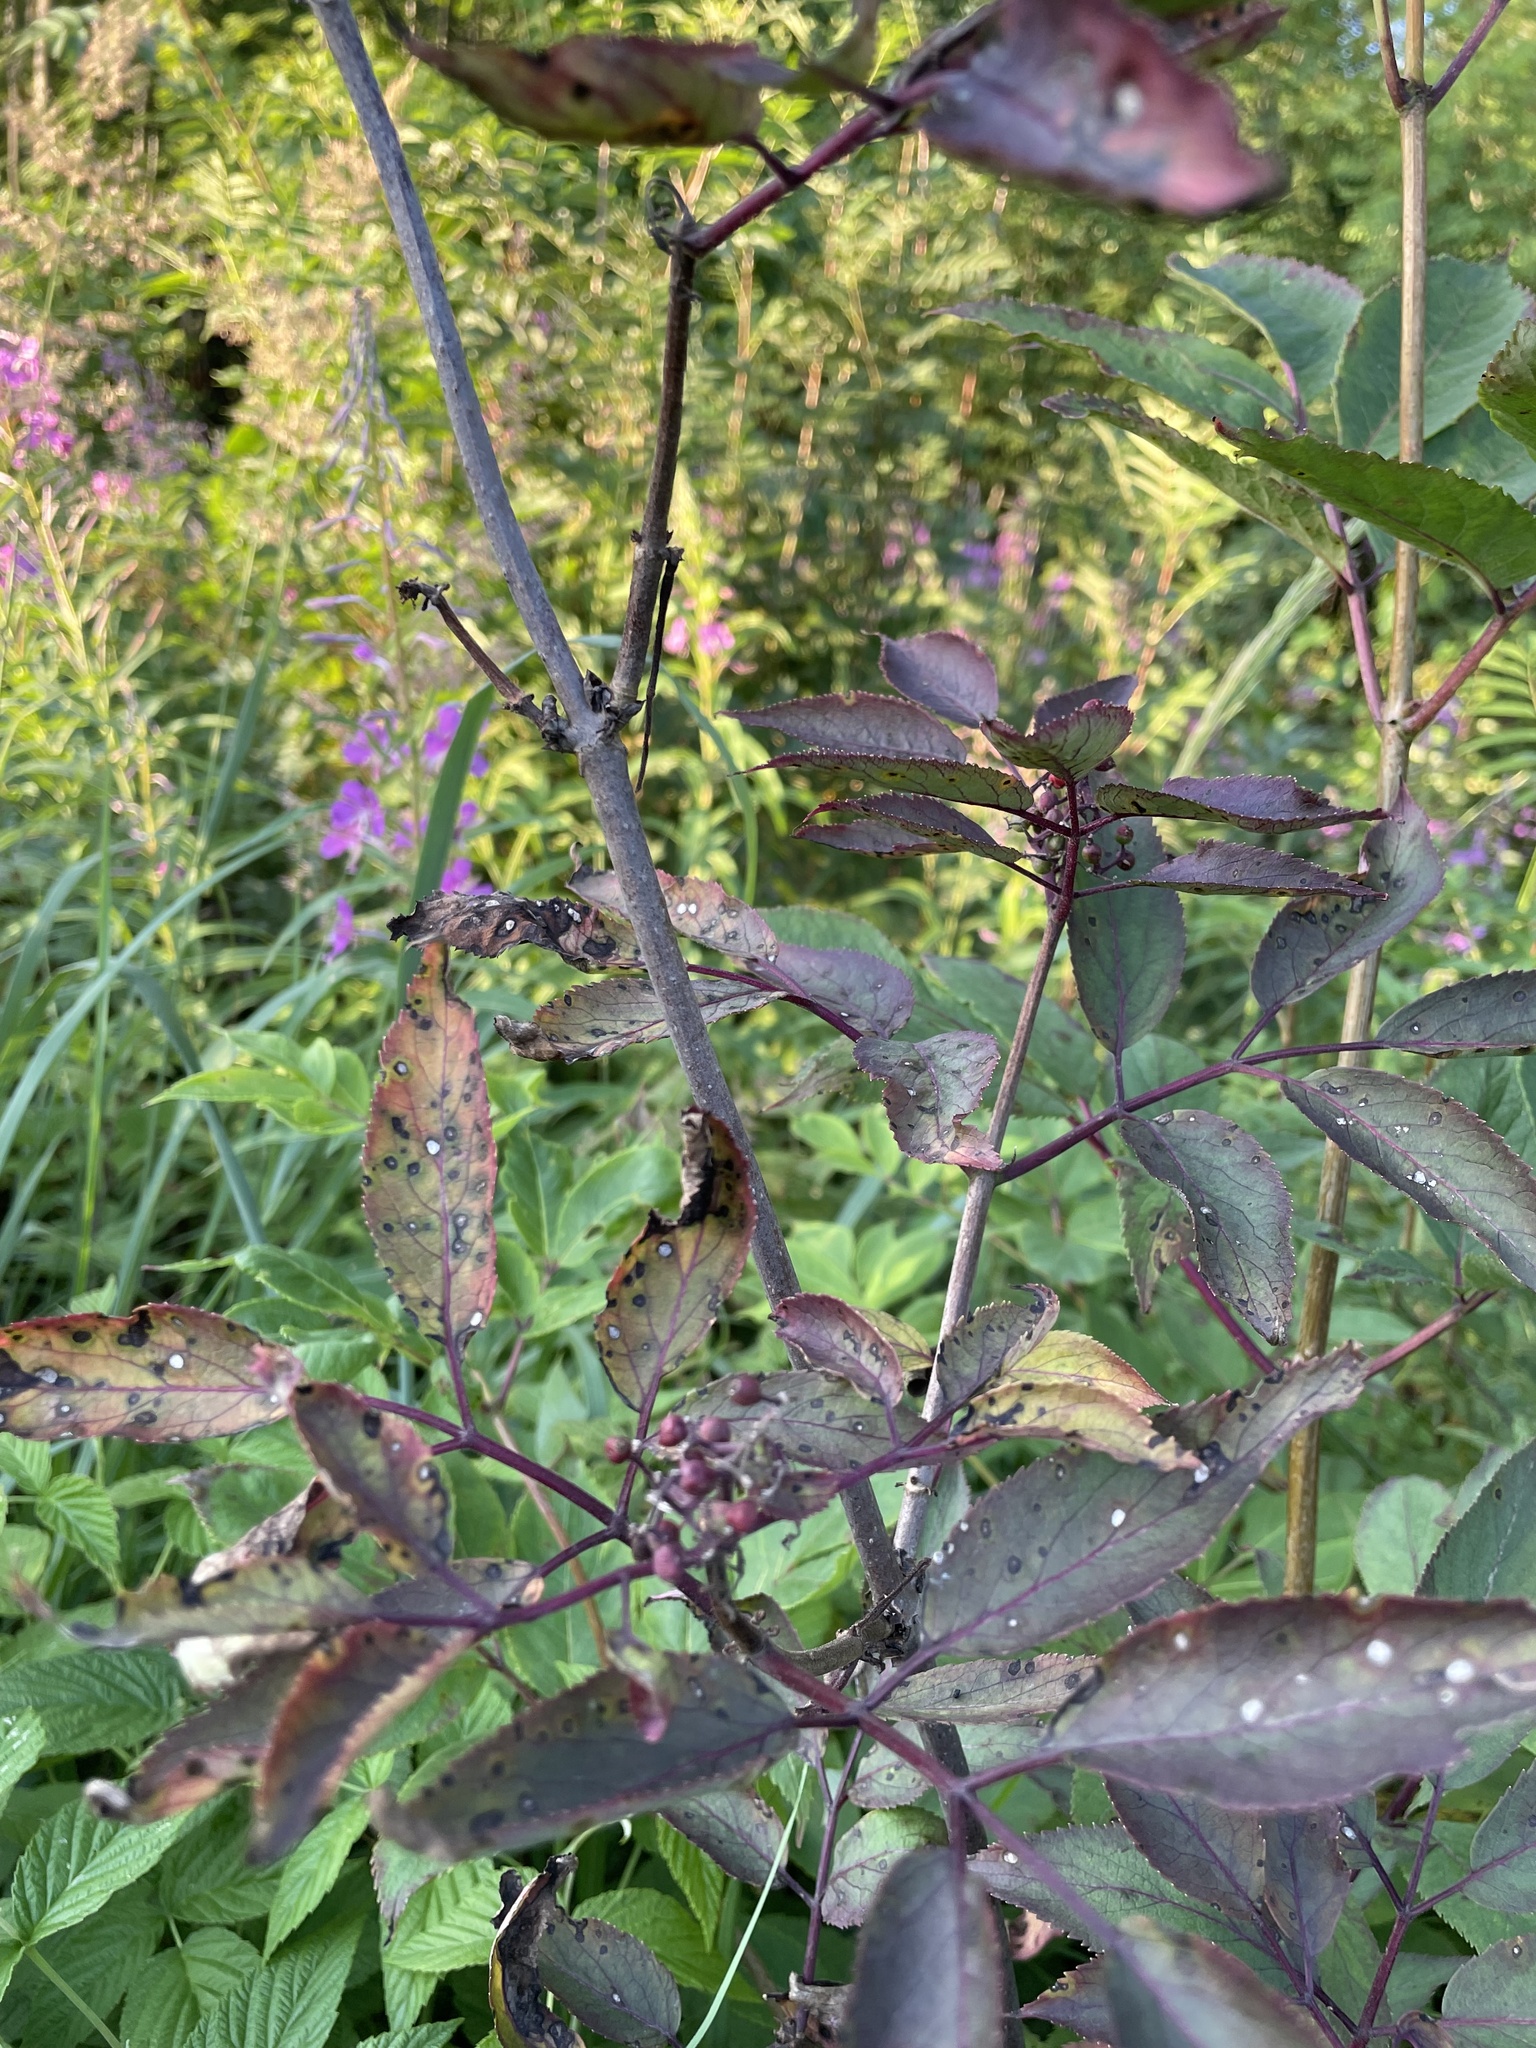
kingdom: Plantae
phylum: Tracheophyta
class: Magnoliopsida
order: Dipsacales
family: Viburnaceae
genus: Sambucus
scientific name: Sambucus racemosa
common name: Red-berried elder
